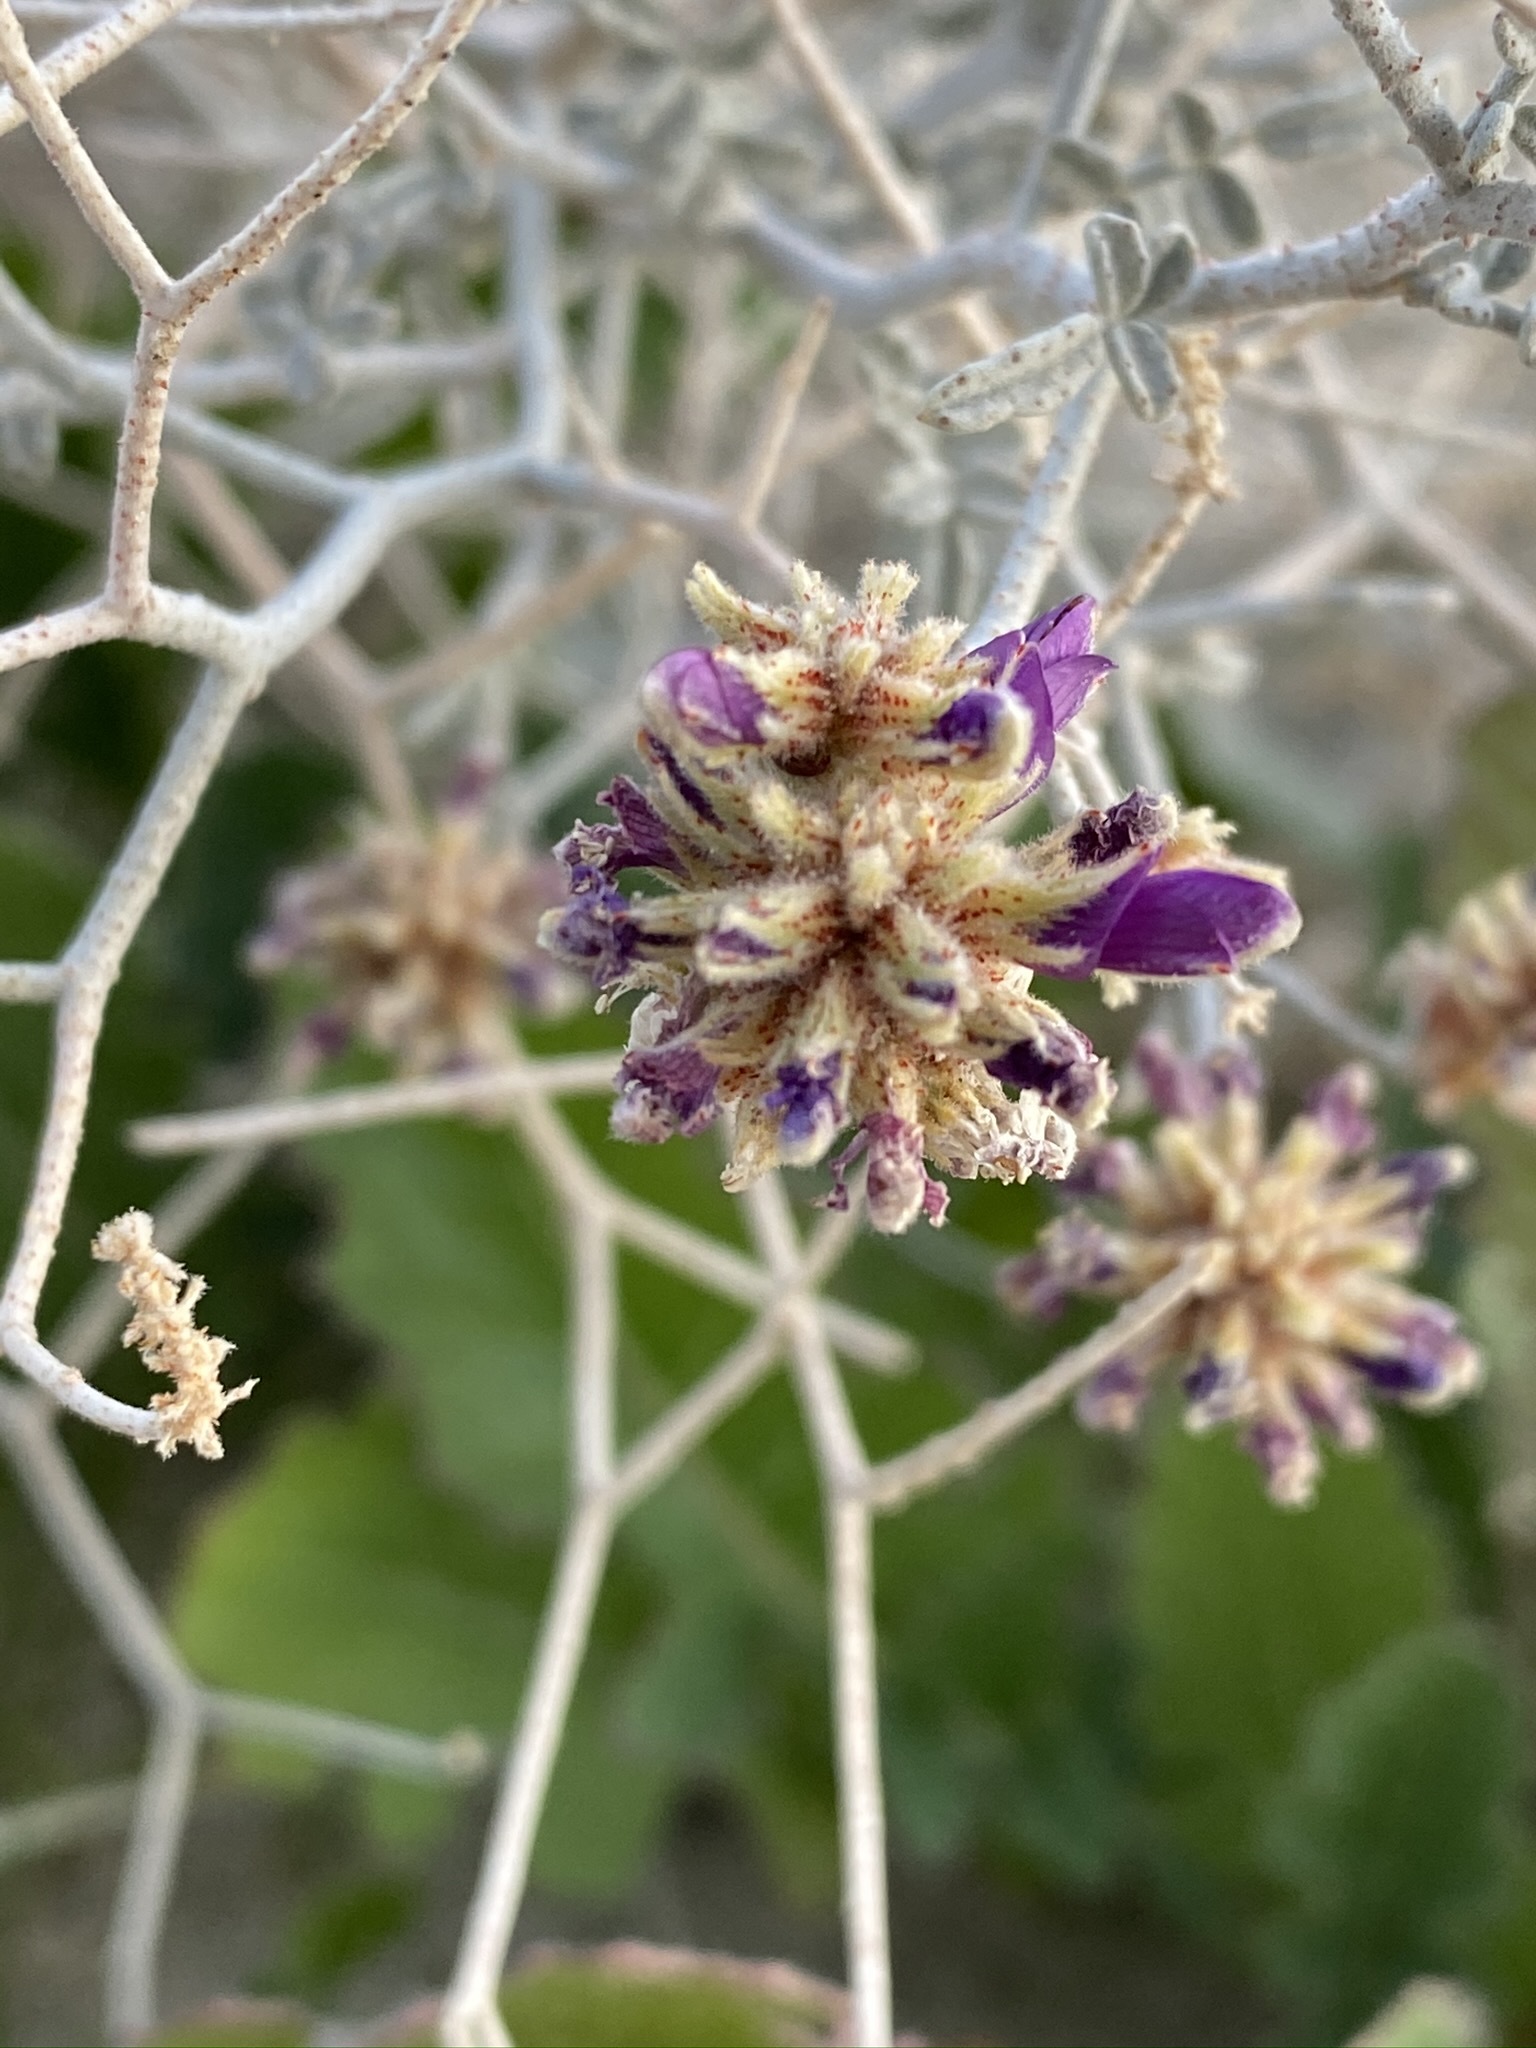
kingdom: Plantae
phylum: Tracheophyta
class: Magnoliopsida
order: Fabales
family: Fabaceae
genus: Psorothamnus
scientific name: Psorothamnus emoryi
